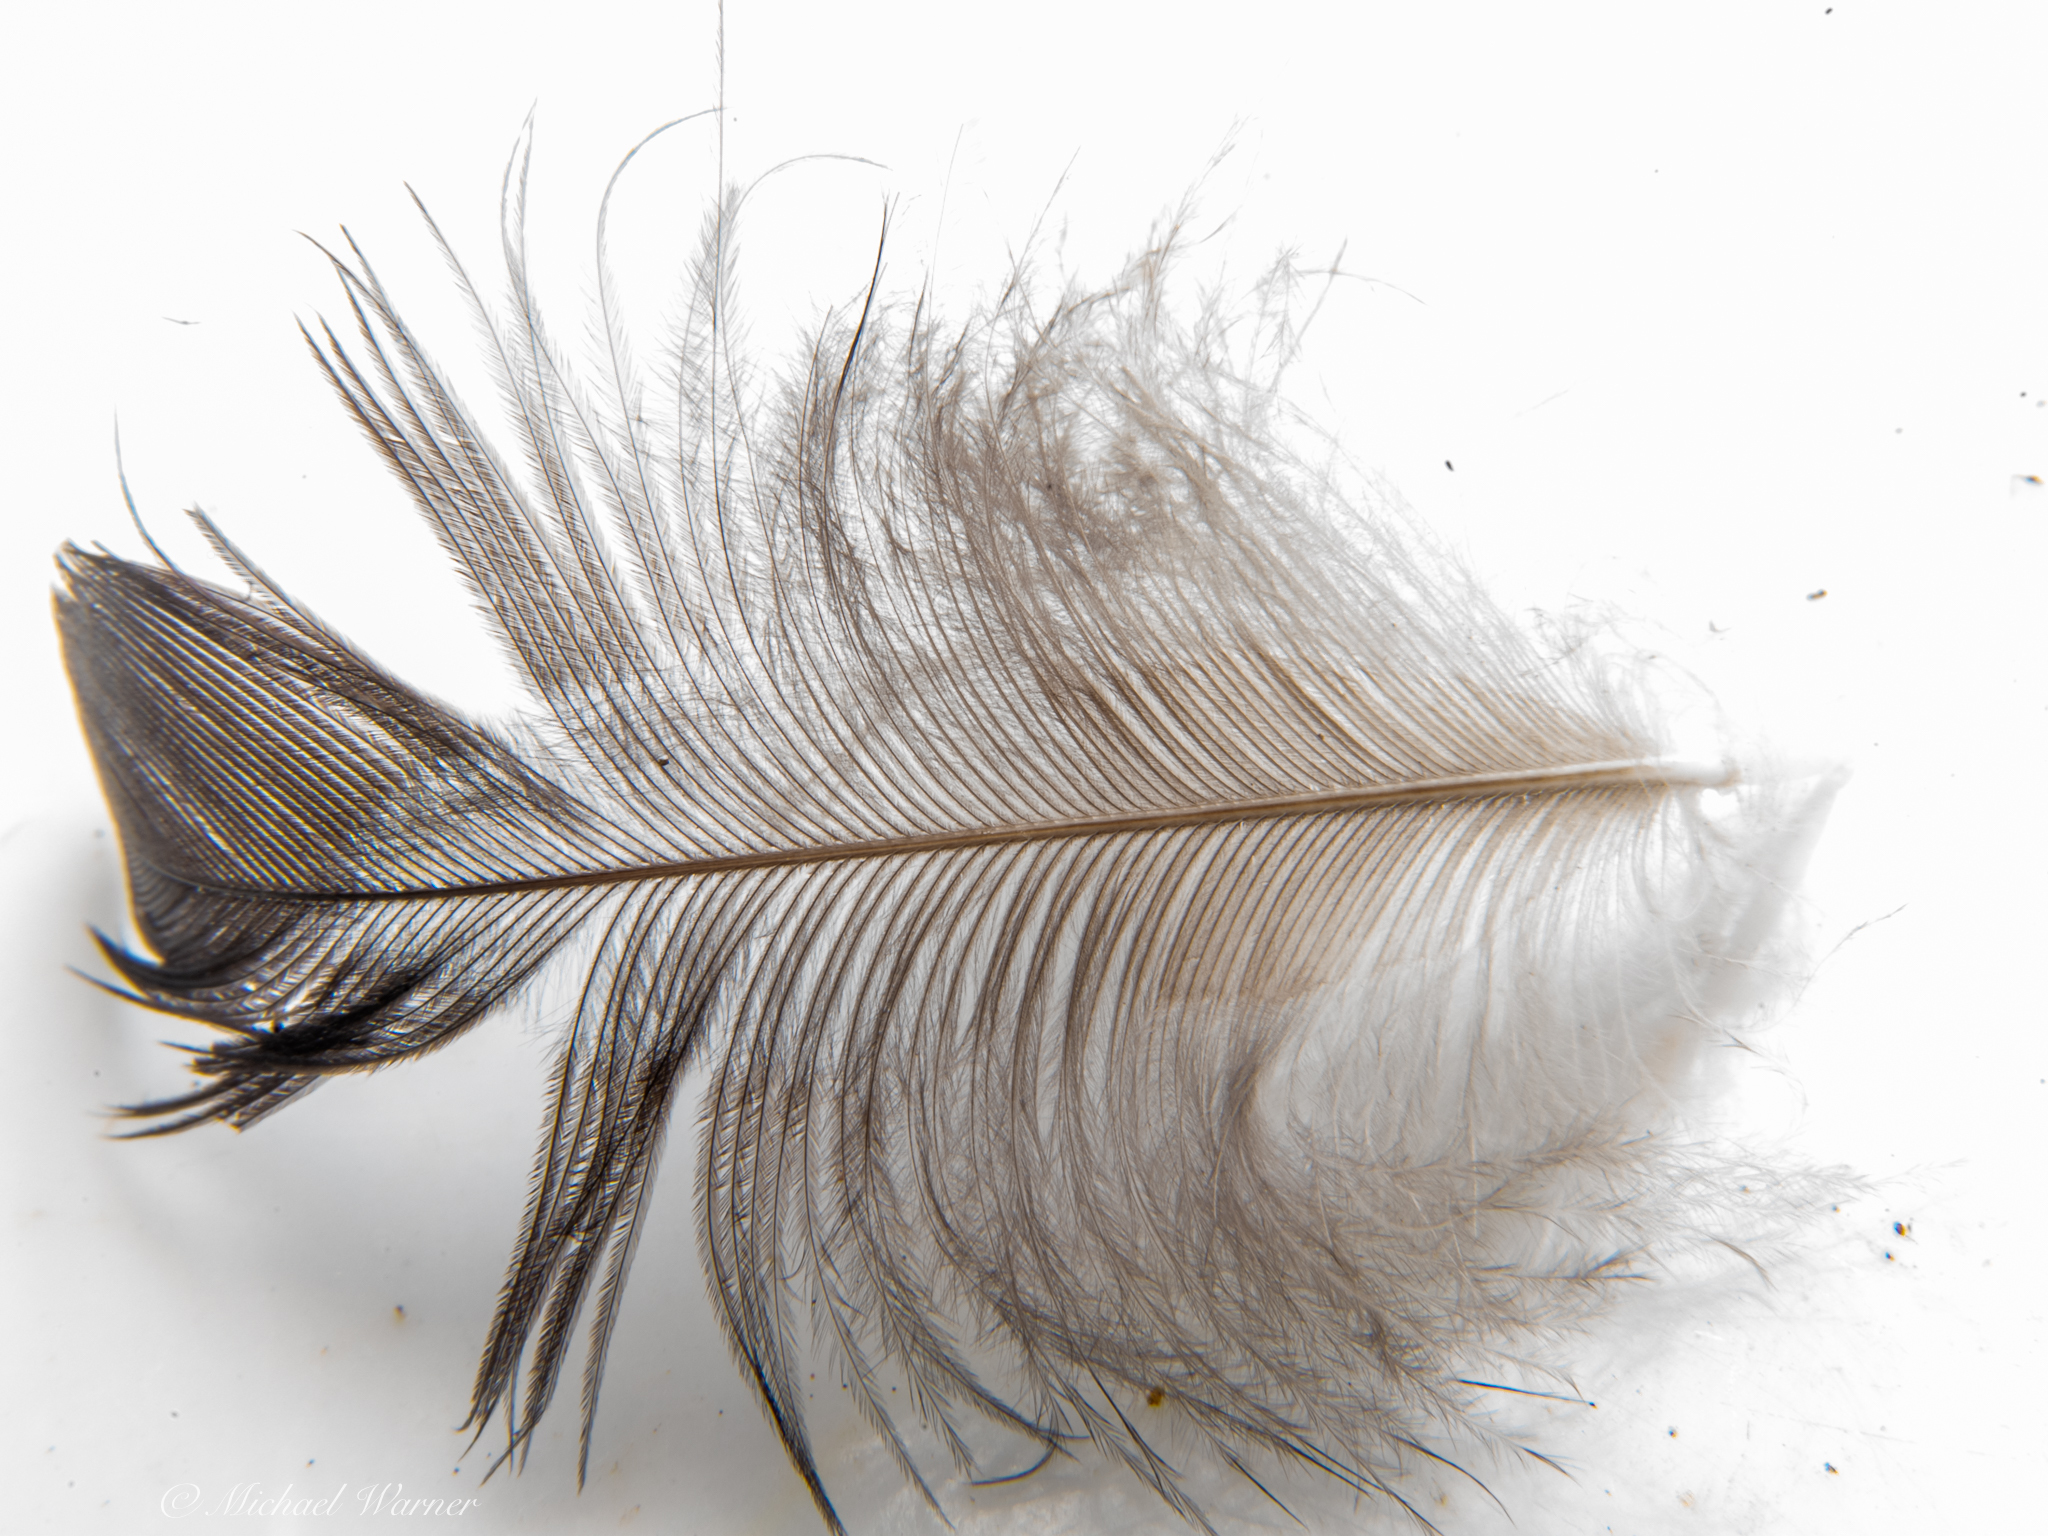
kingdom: Animalia
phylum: Chordata
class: Aves
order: Galliformes
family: Phasianidae
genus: Meleagris
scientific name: Meleagris gallopavo
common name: Wild turkey
